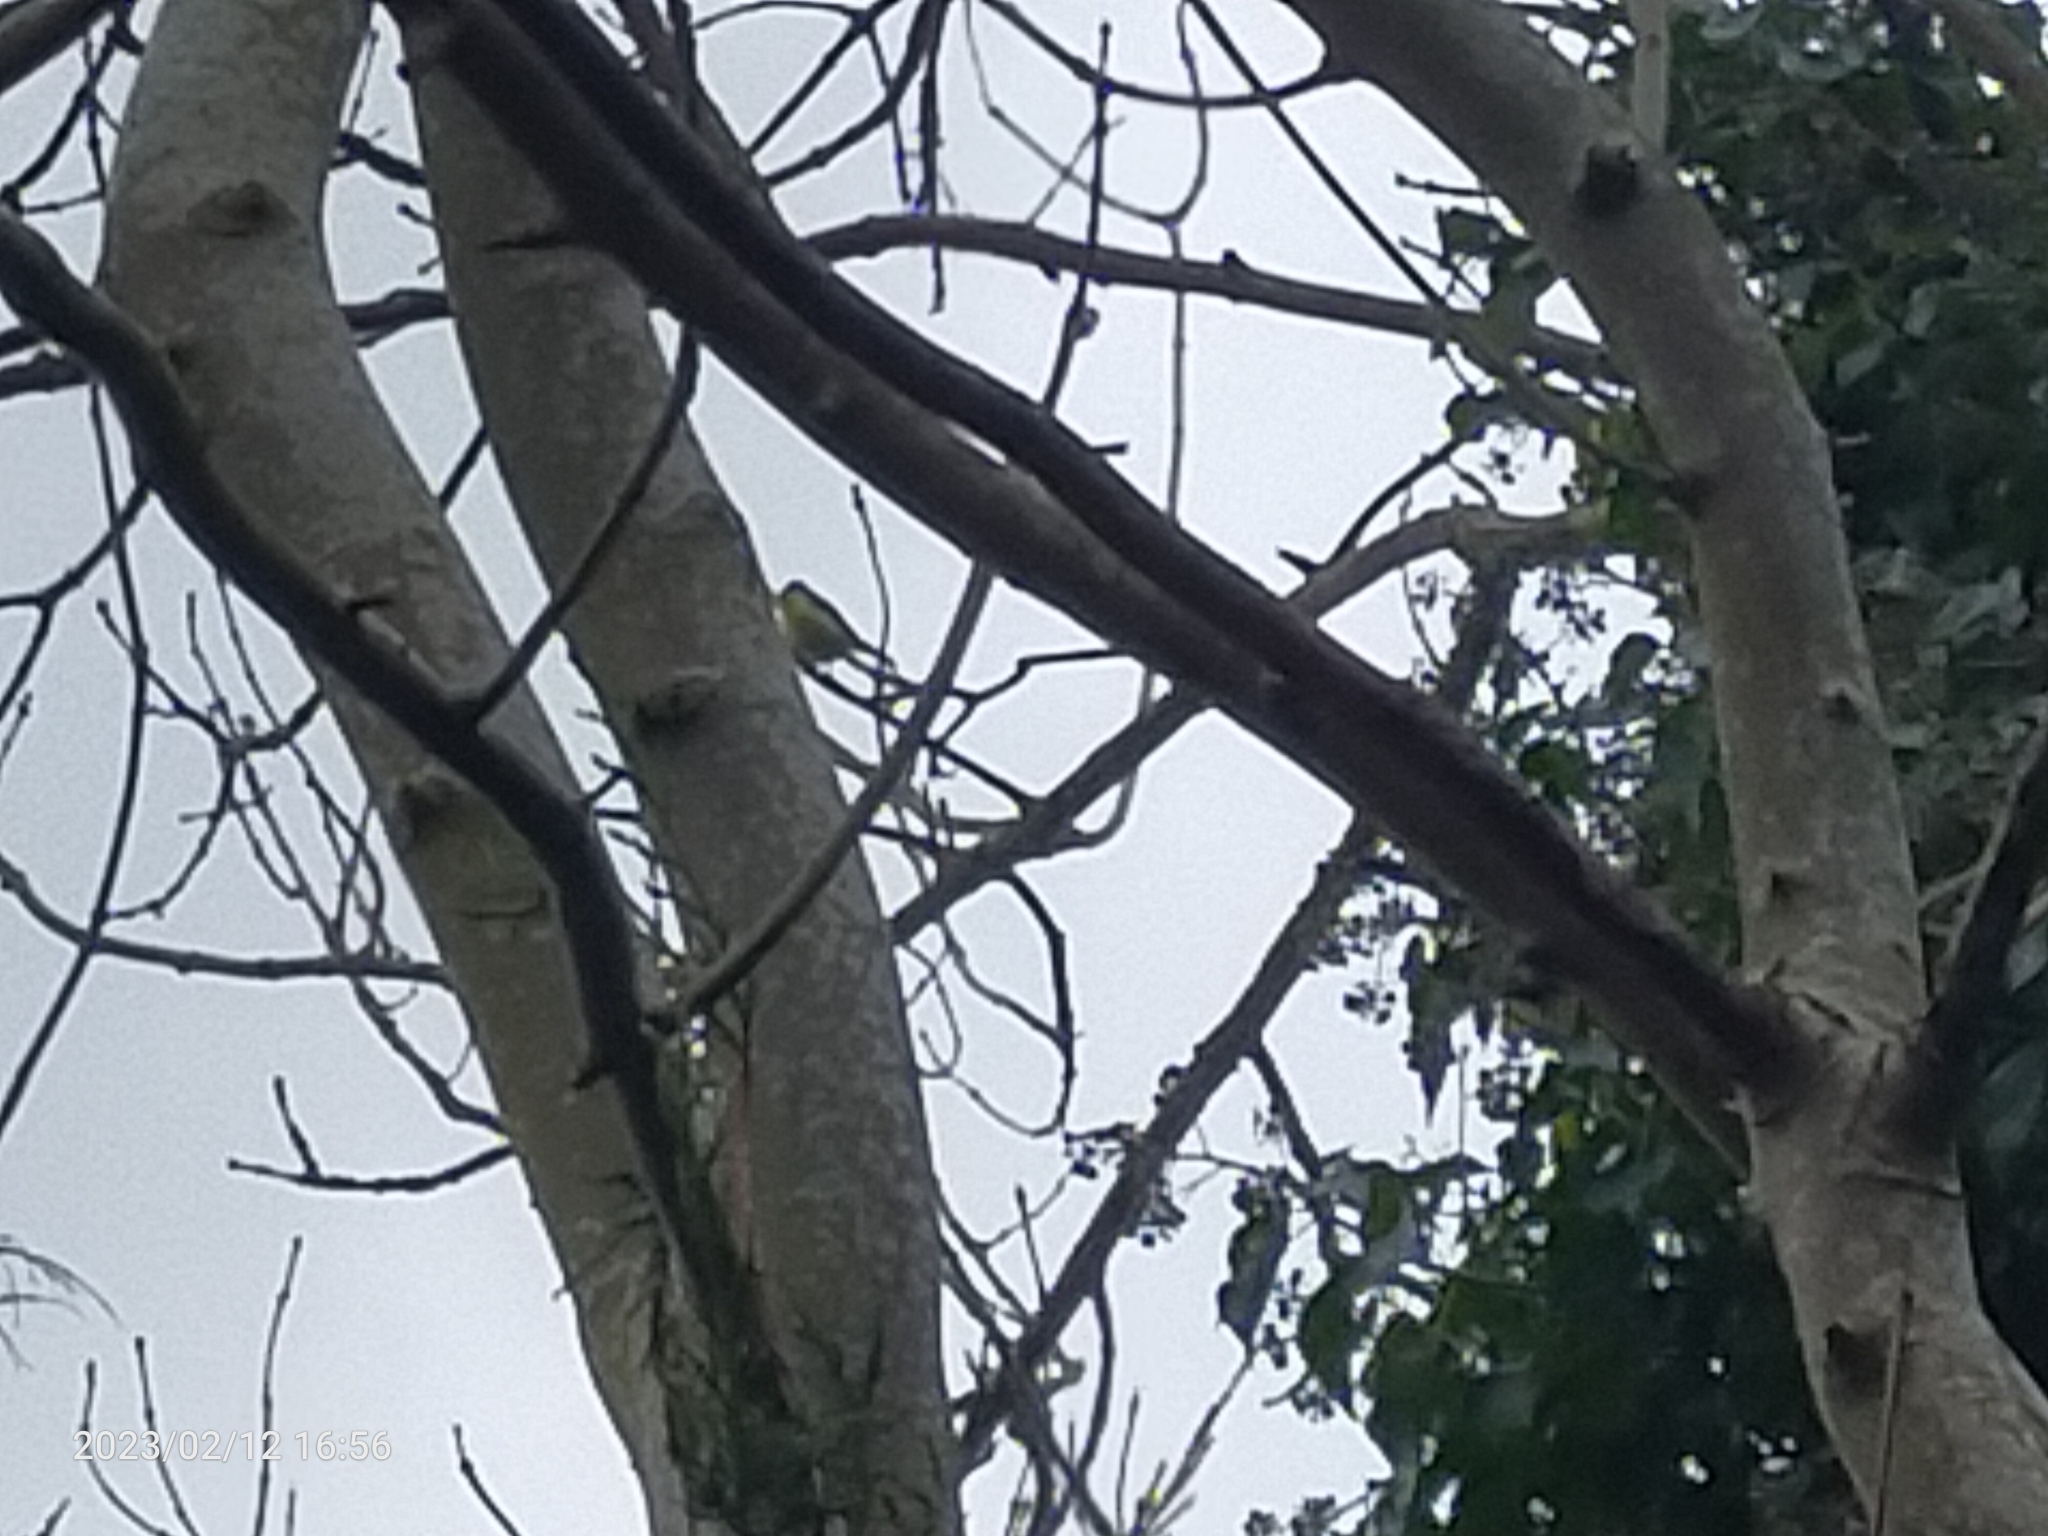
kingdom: Animalia
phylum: Chordata
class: Aves
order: Passeriformes
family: Paridae
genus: Cyanistes
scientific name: Cyanistes caeruleus
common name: Eurasian blue tit
